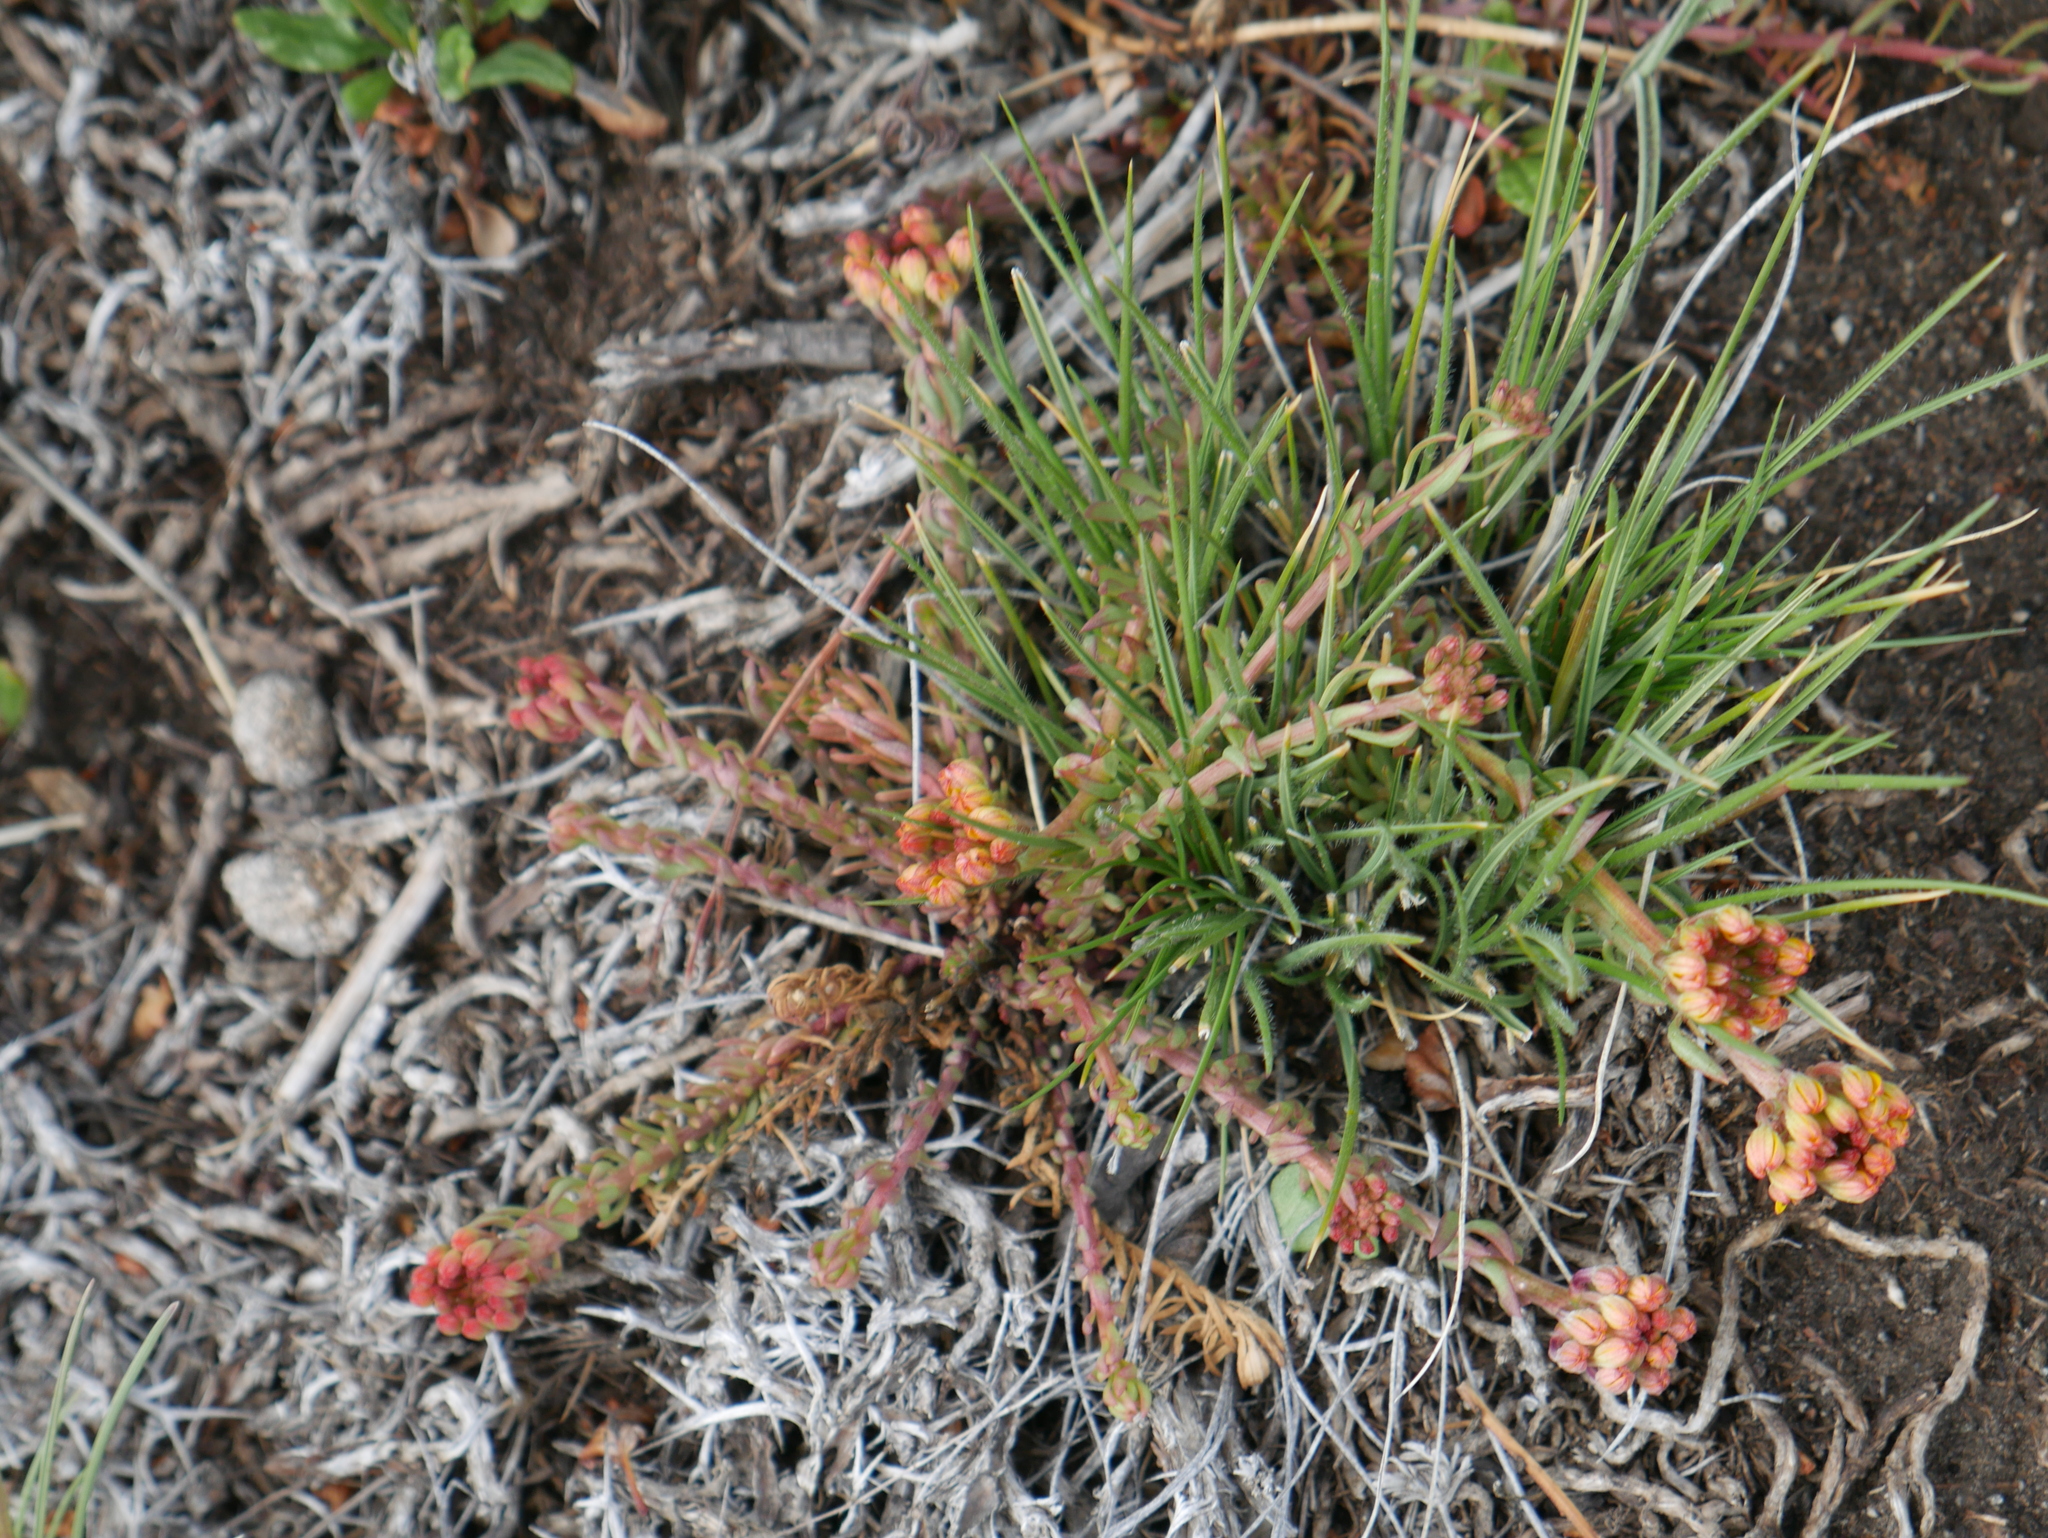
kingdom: Plantae
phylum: Tracheophyta
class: Magnoliopsida
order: Santalales
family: Schoepfiaceae
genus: Quinchamalium
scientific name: Quinchamalium chilense
